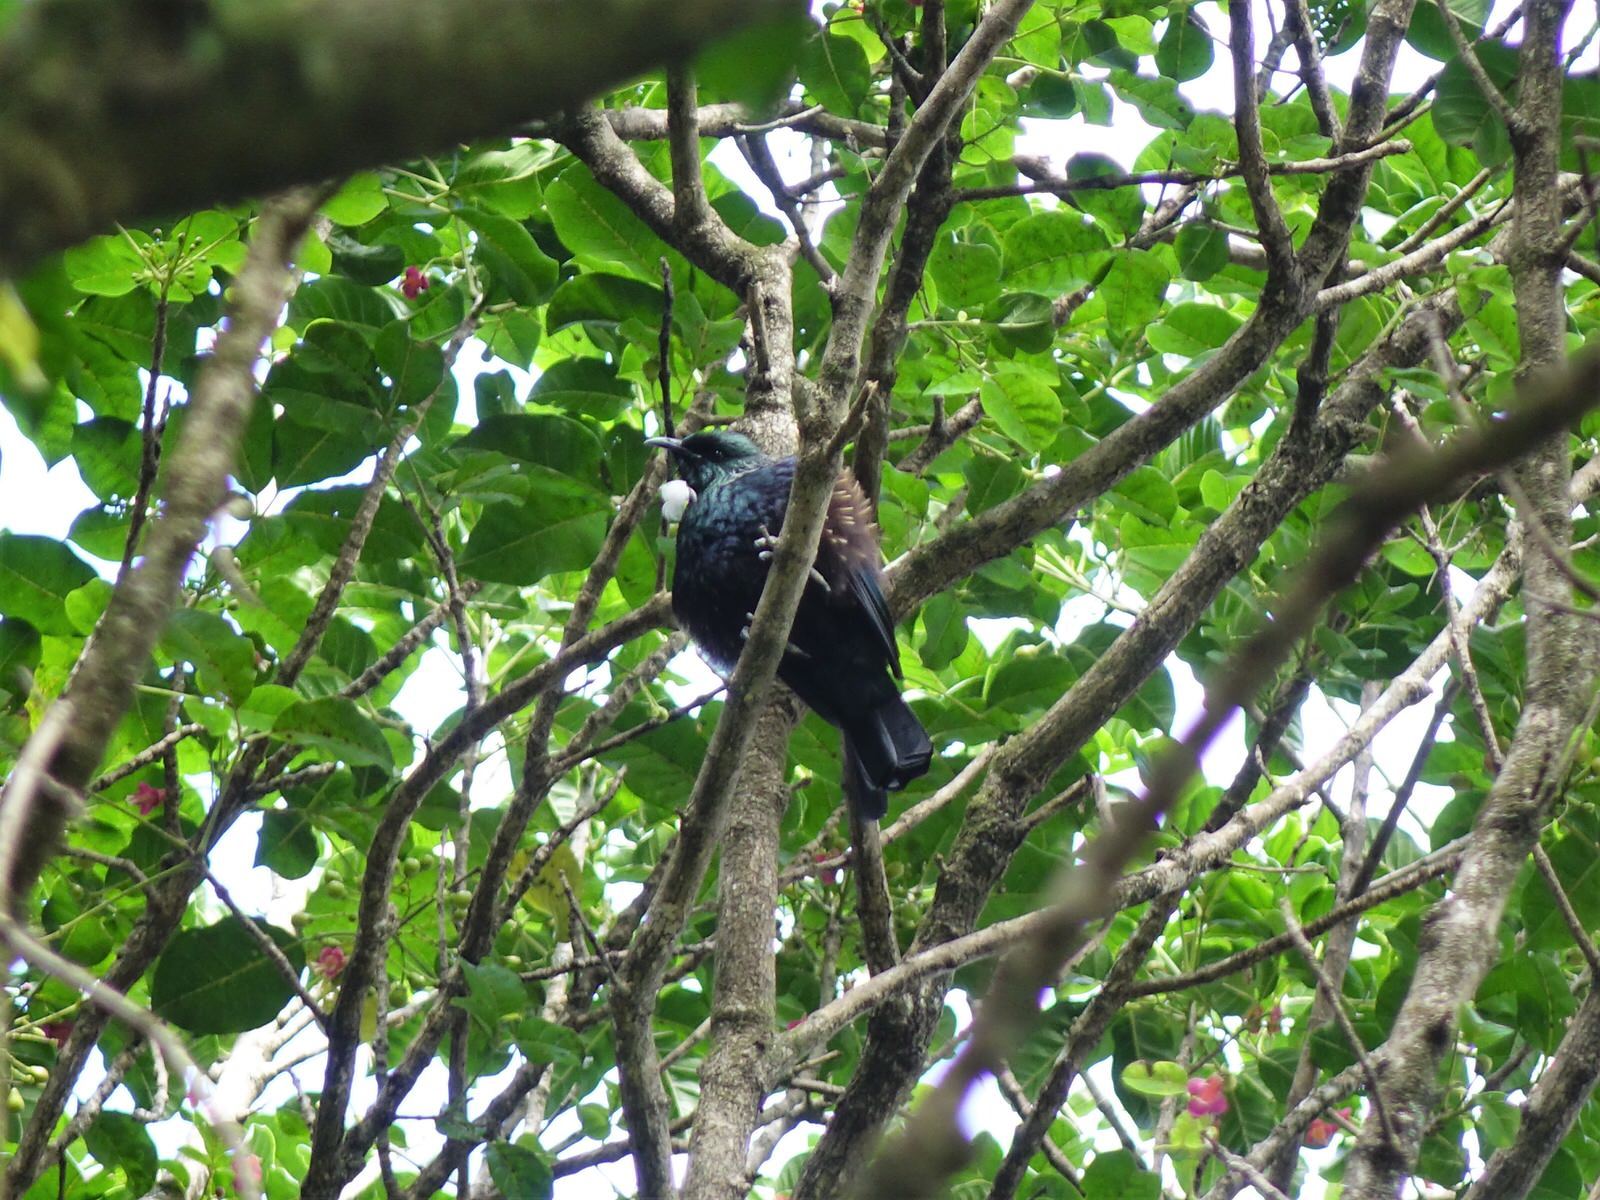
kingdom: Animalia
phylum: Chordata
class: Aves
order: Passeriformes
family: Meliphagidae
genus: Prosthemadera
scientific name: Prosthemadera novaeseelandiae
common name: Tui
